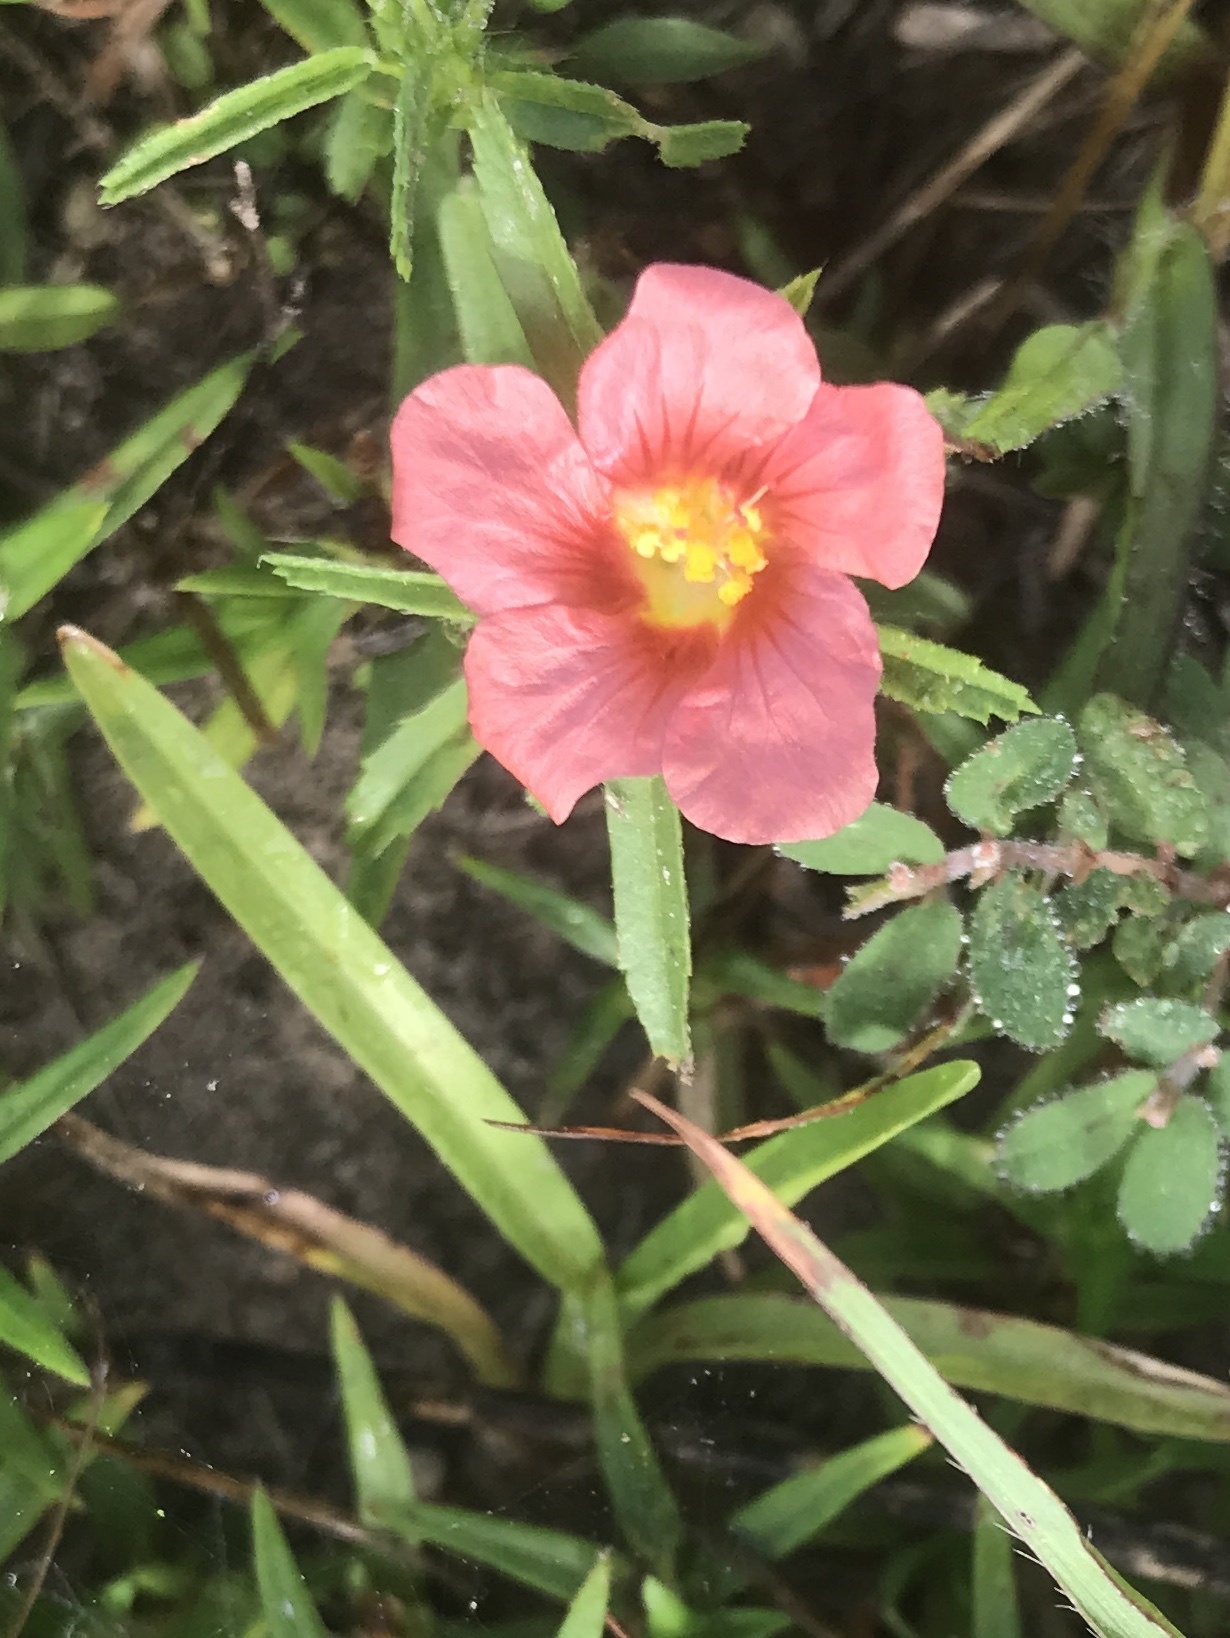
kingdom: Plantae
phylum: Tracheophyta
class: Magnoliopsida
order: Malvales
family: Malvaceae
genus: Sida
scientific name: Sida ciliaris
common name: Bracted fanpetals
